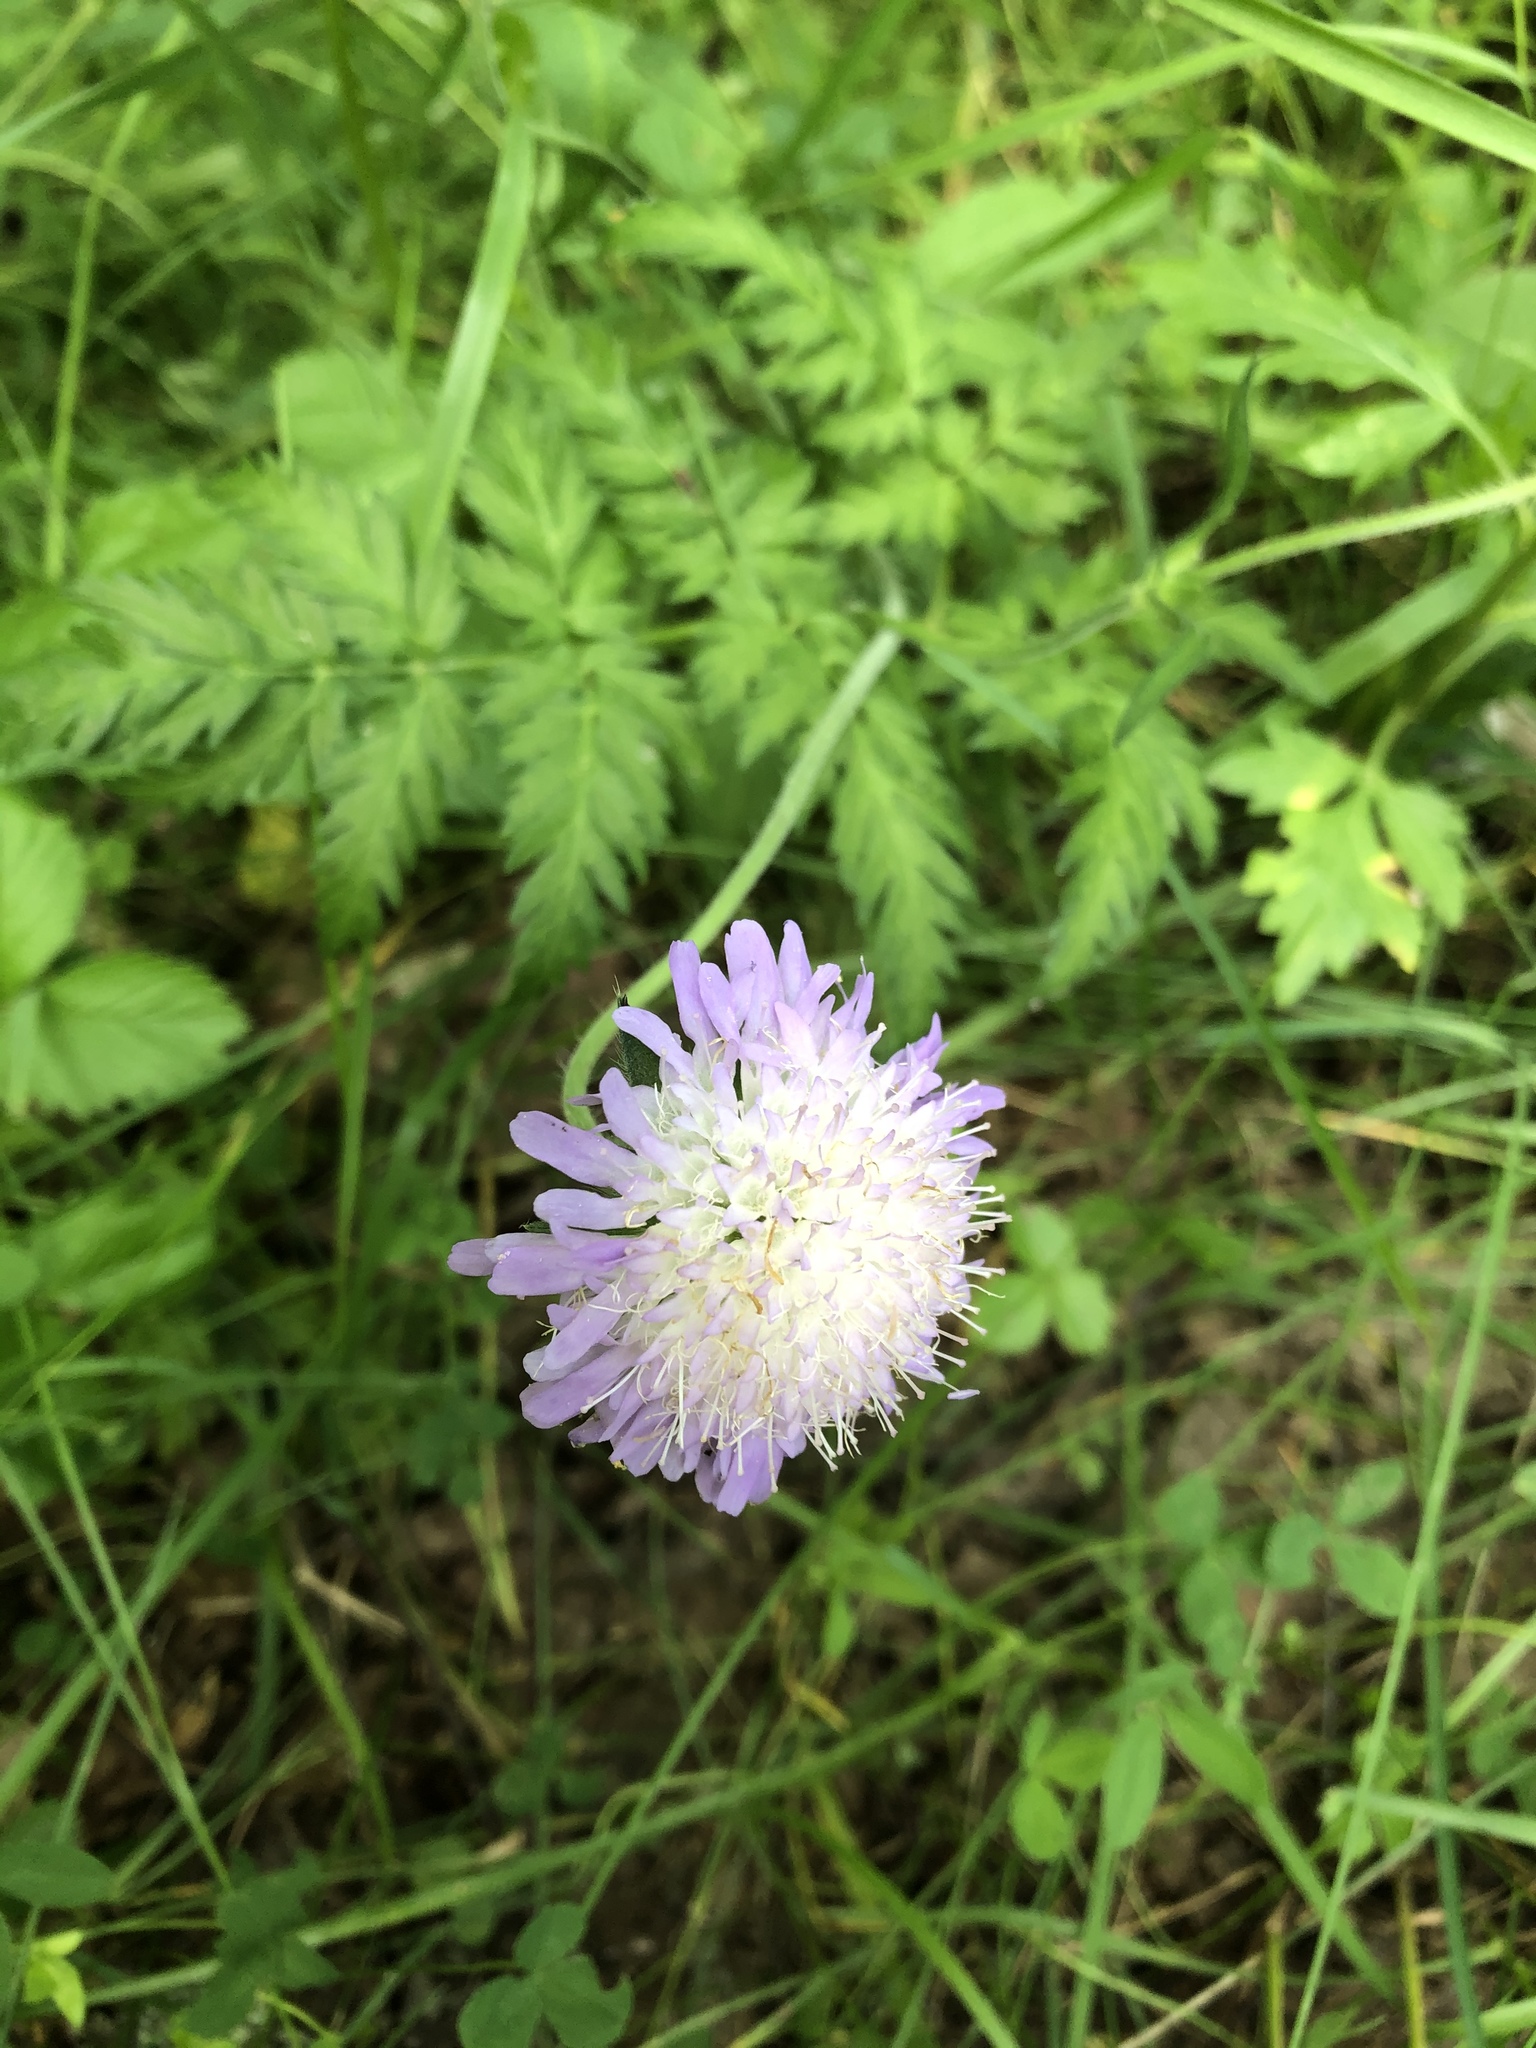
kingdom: Plantae
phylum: Tracheophyta
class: Magnoliopsida
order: Dipsacales
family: Caprifoliaceae
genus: Knautia
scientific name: Knautia arvensis
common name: Field scabiosa
